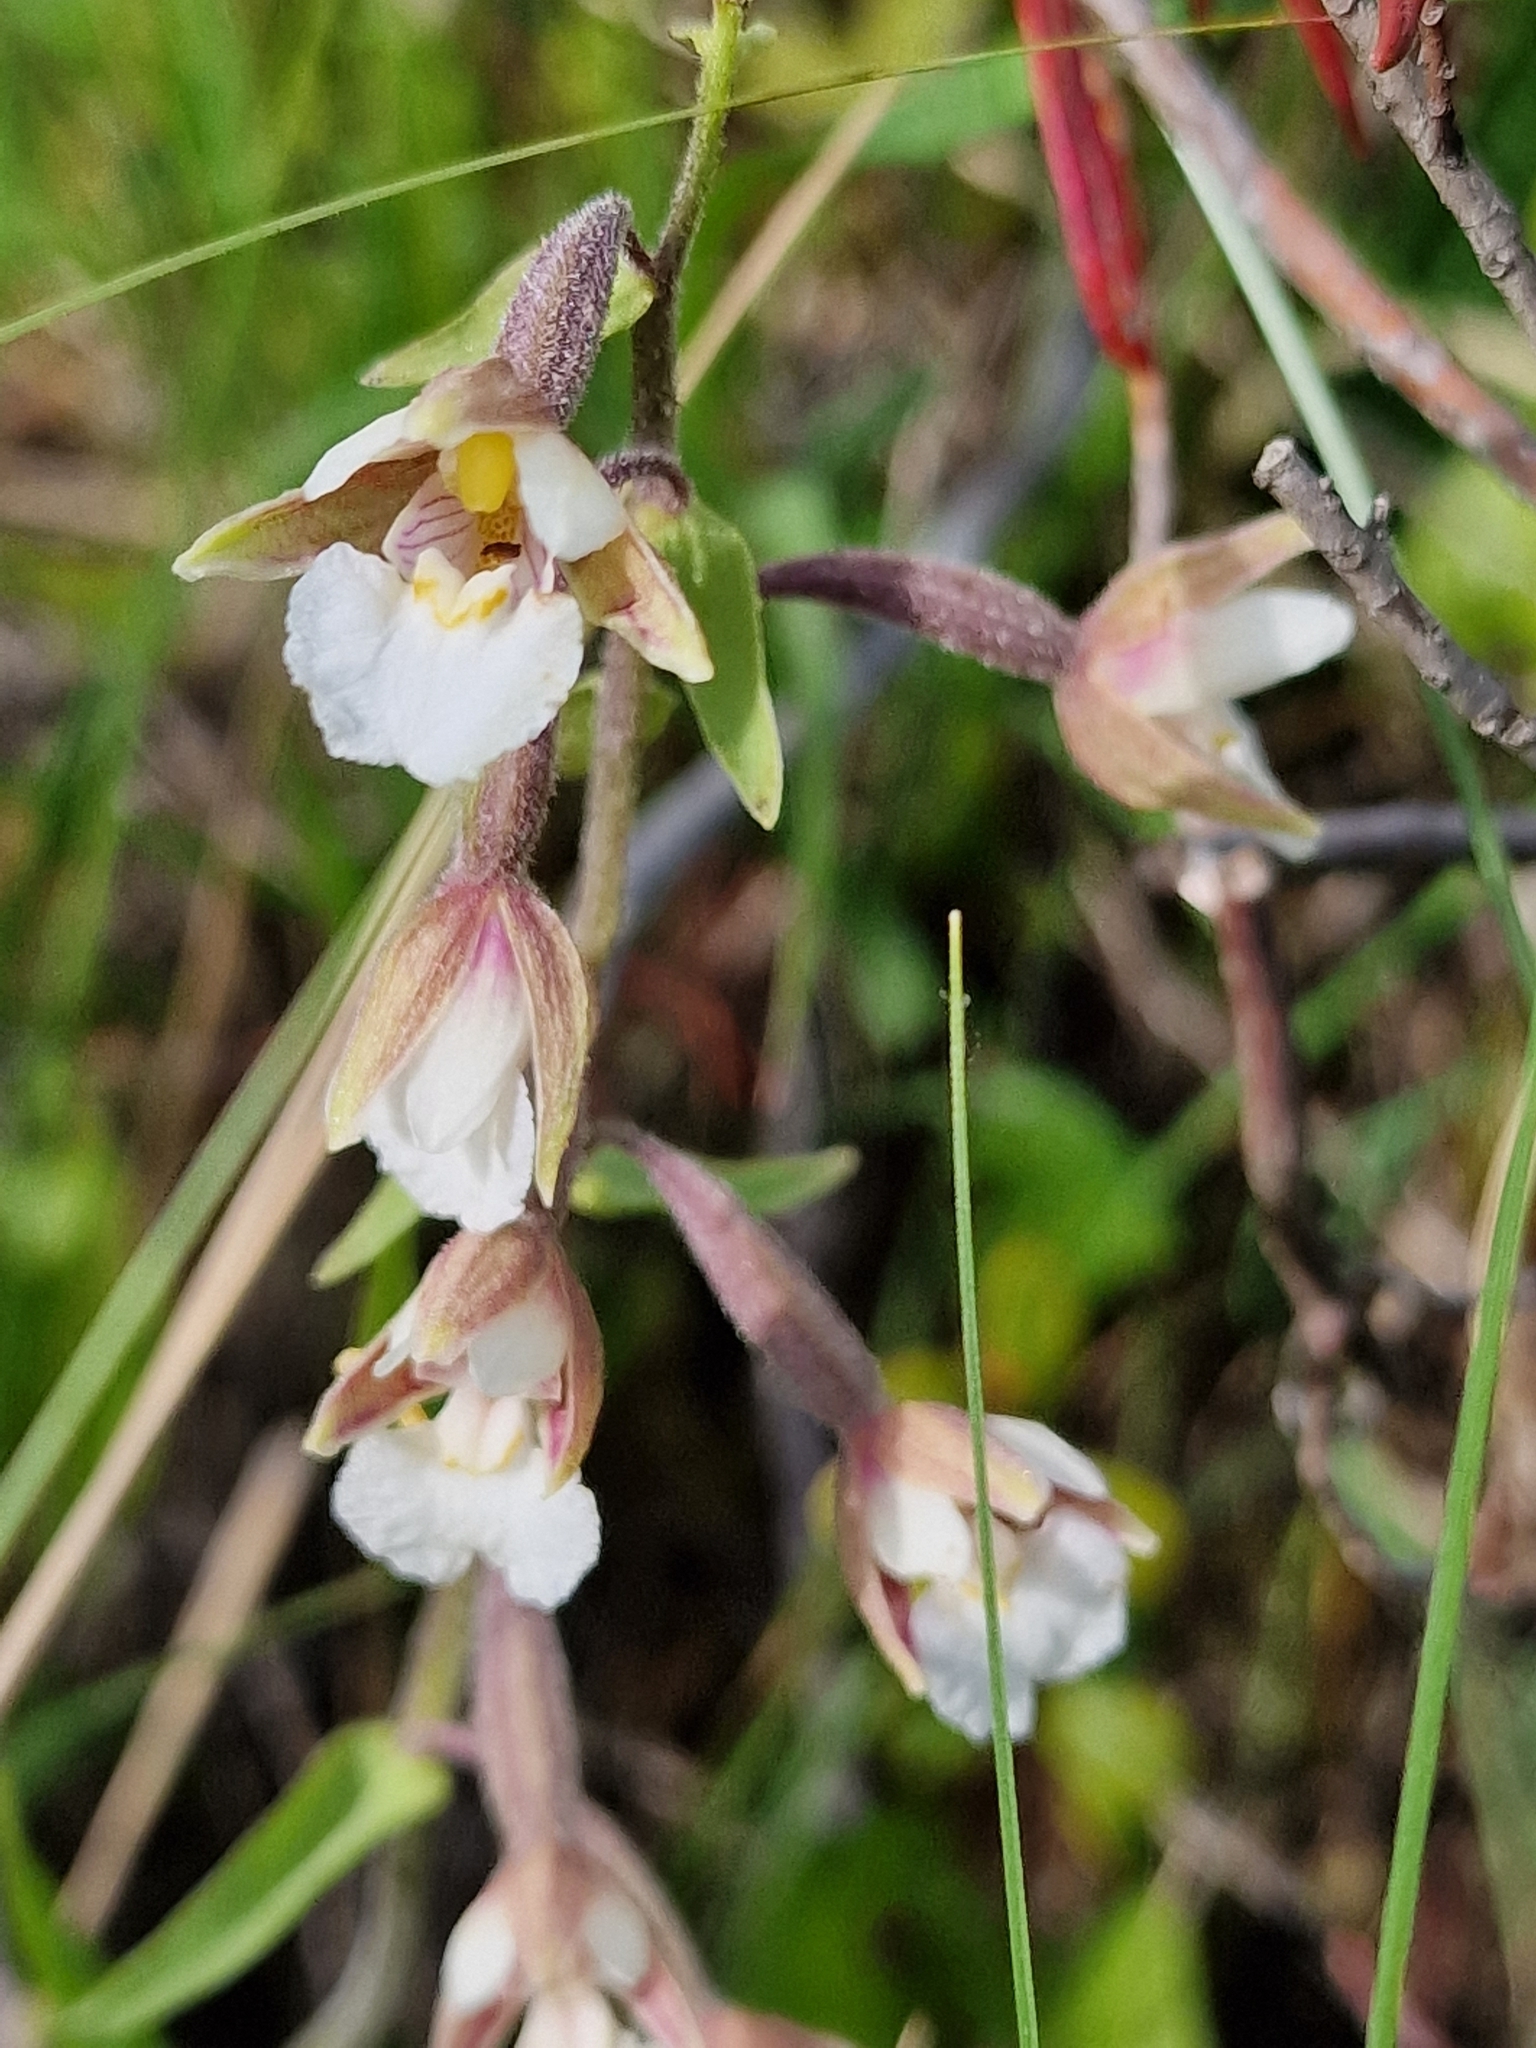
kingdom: Plantae
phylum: Tracheophyta
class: Liliopsida
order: Asparagales
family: Orchidaceae
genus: Epipactis
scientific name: Epipactis palustris
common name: Marsh helleborine
